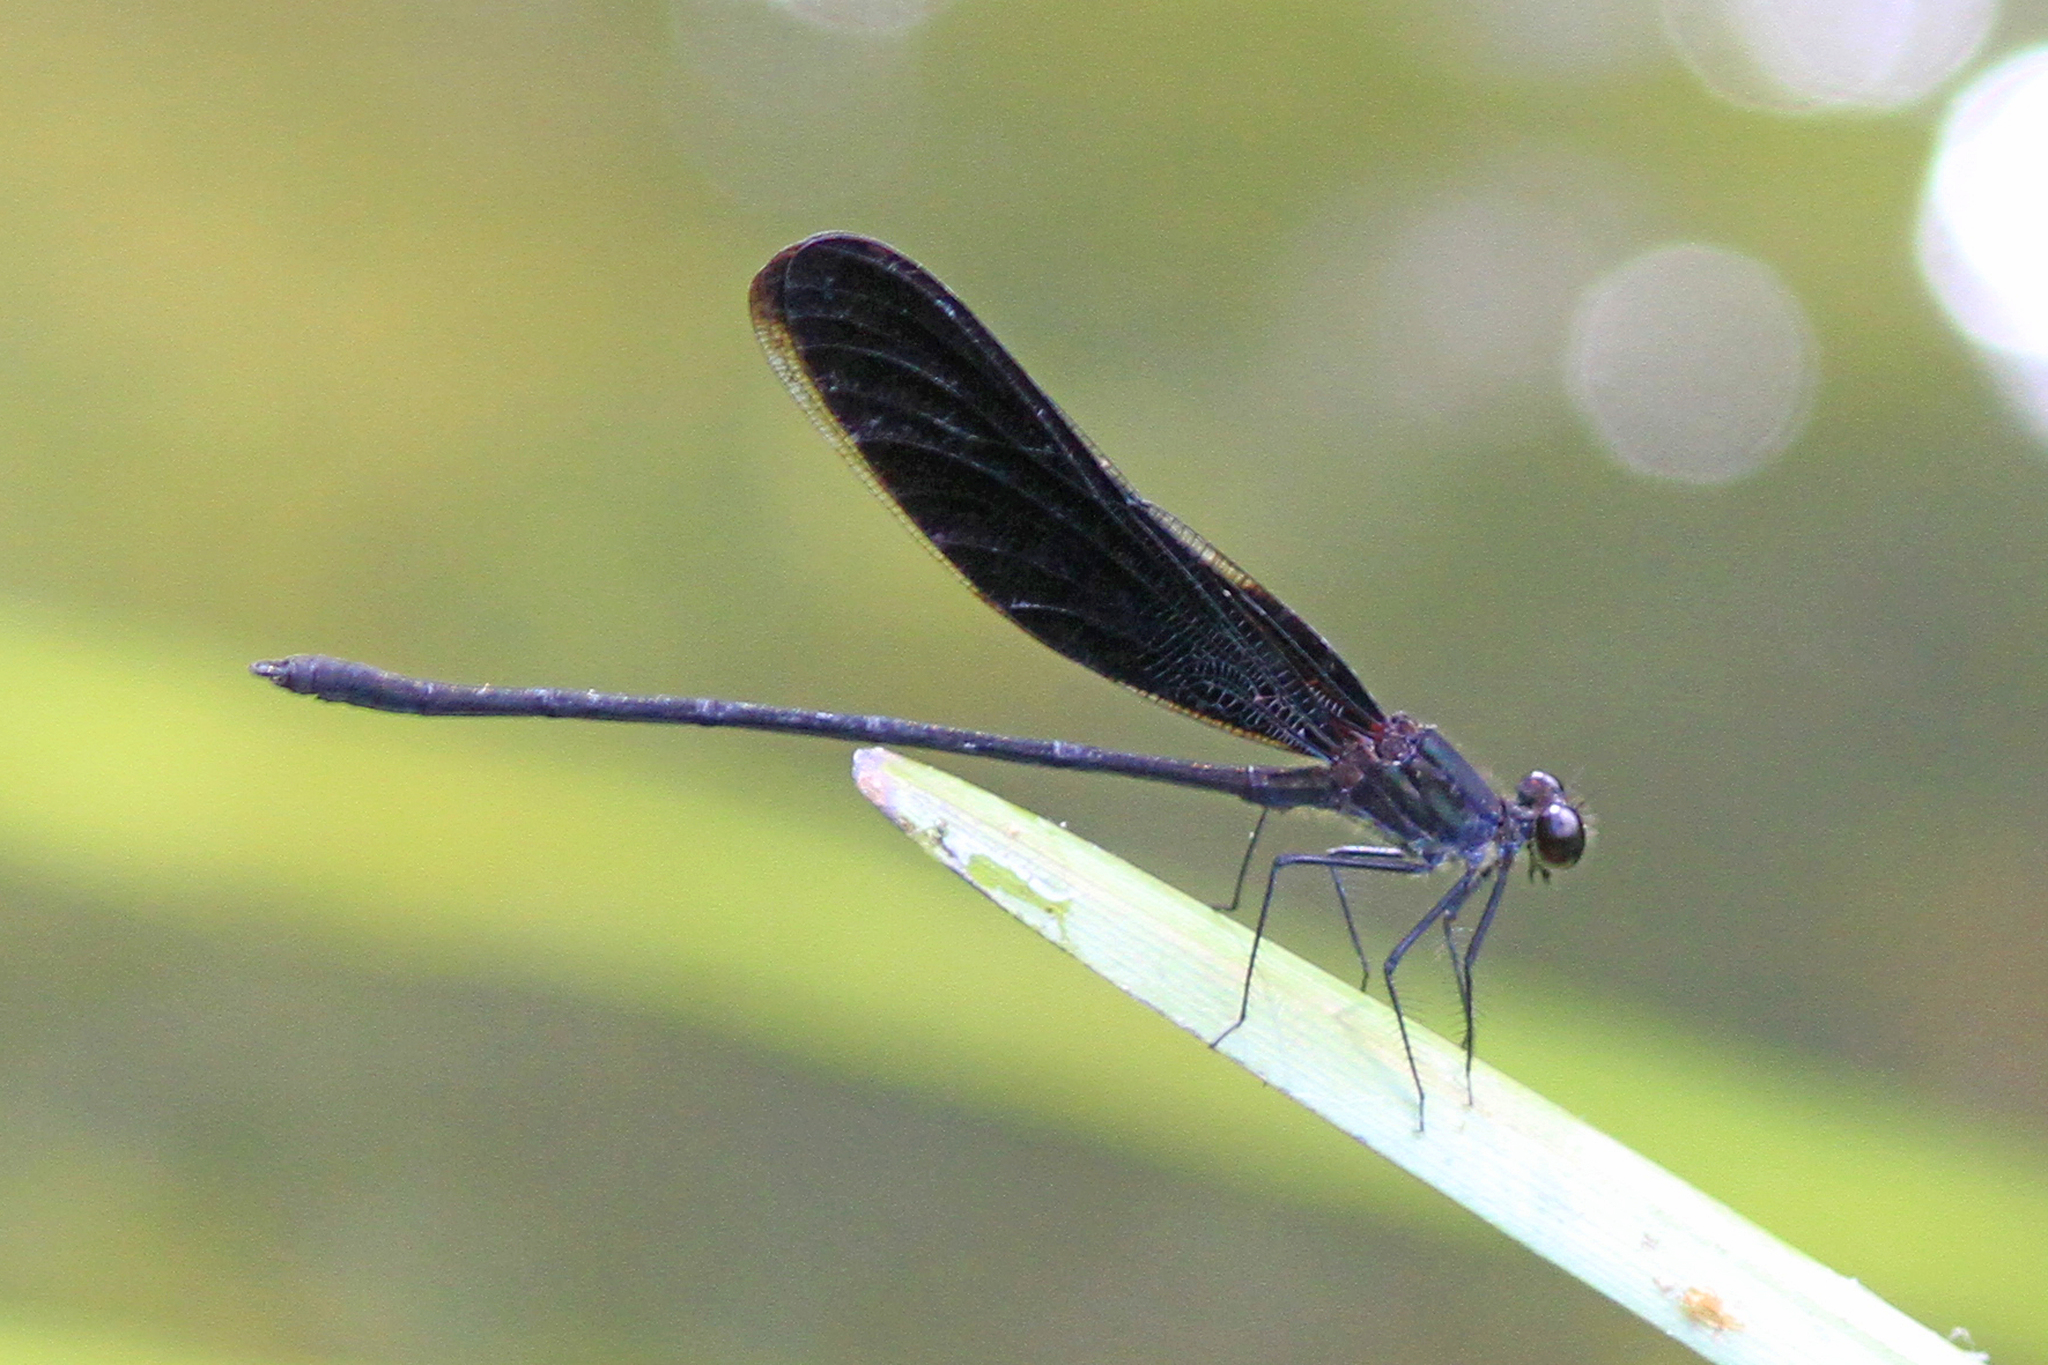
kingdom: Animalia
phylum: Arthropoda
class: Insecta
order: Odonata
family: Calopterygidae
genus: Hetaerina
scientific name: Hetaerina titia
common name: Smoky rubyspot
